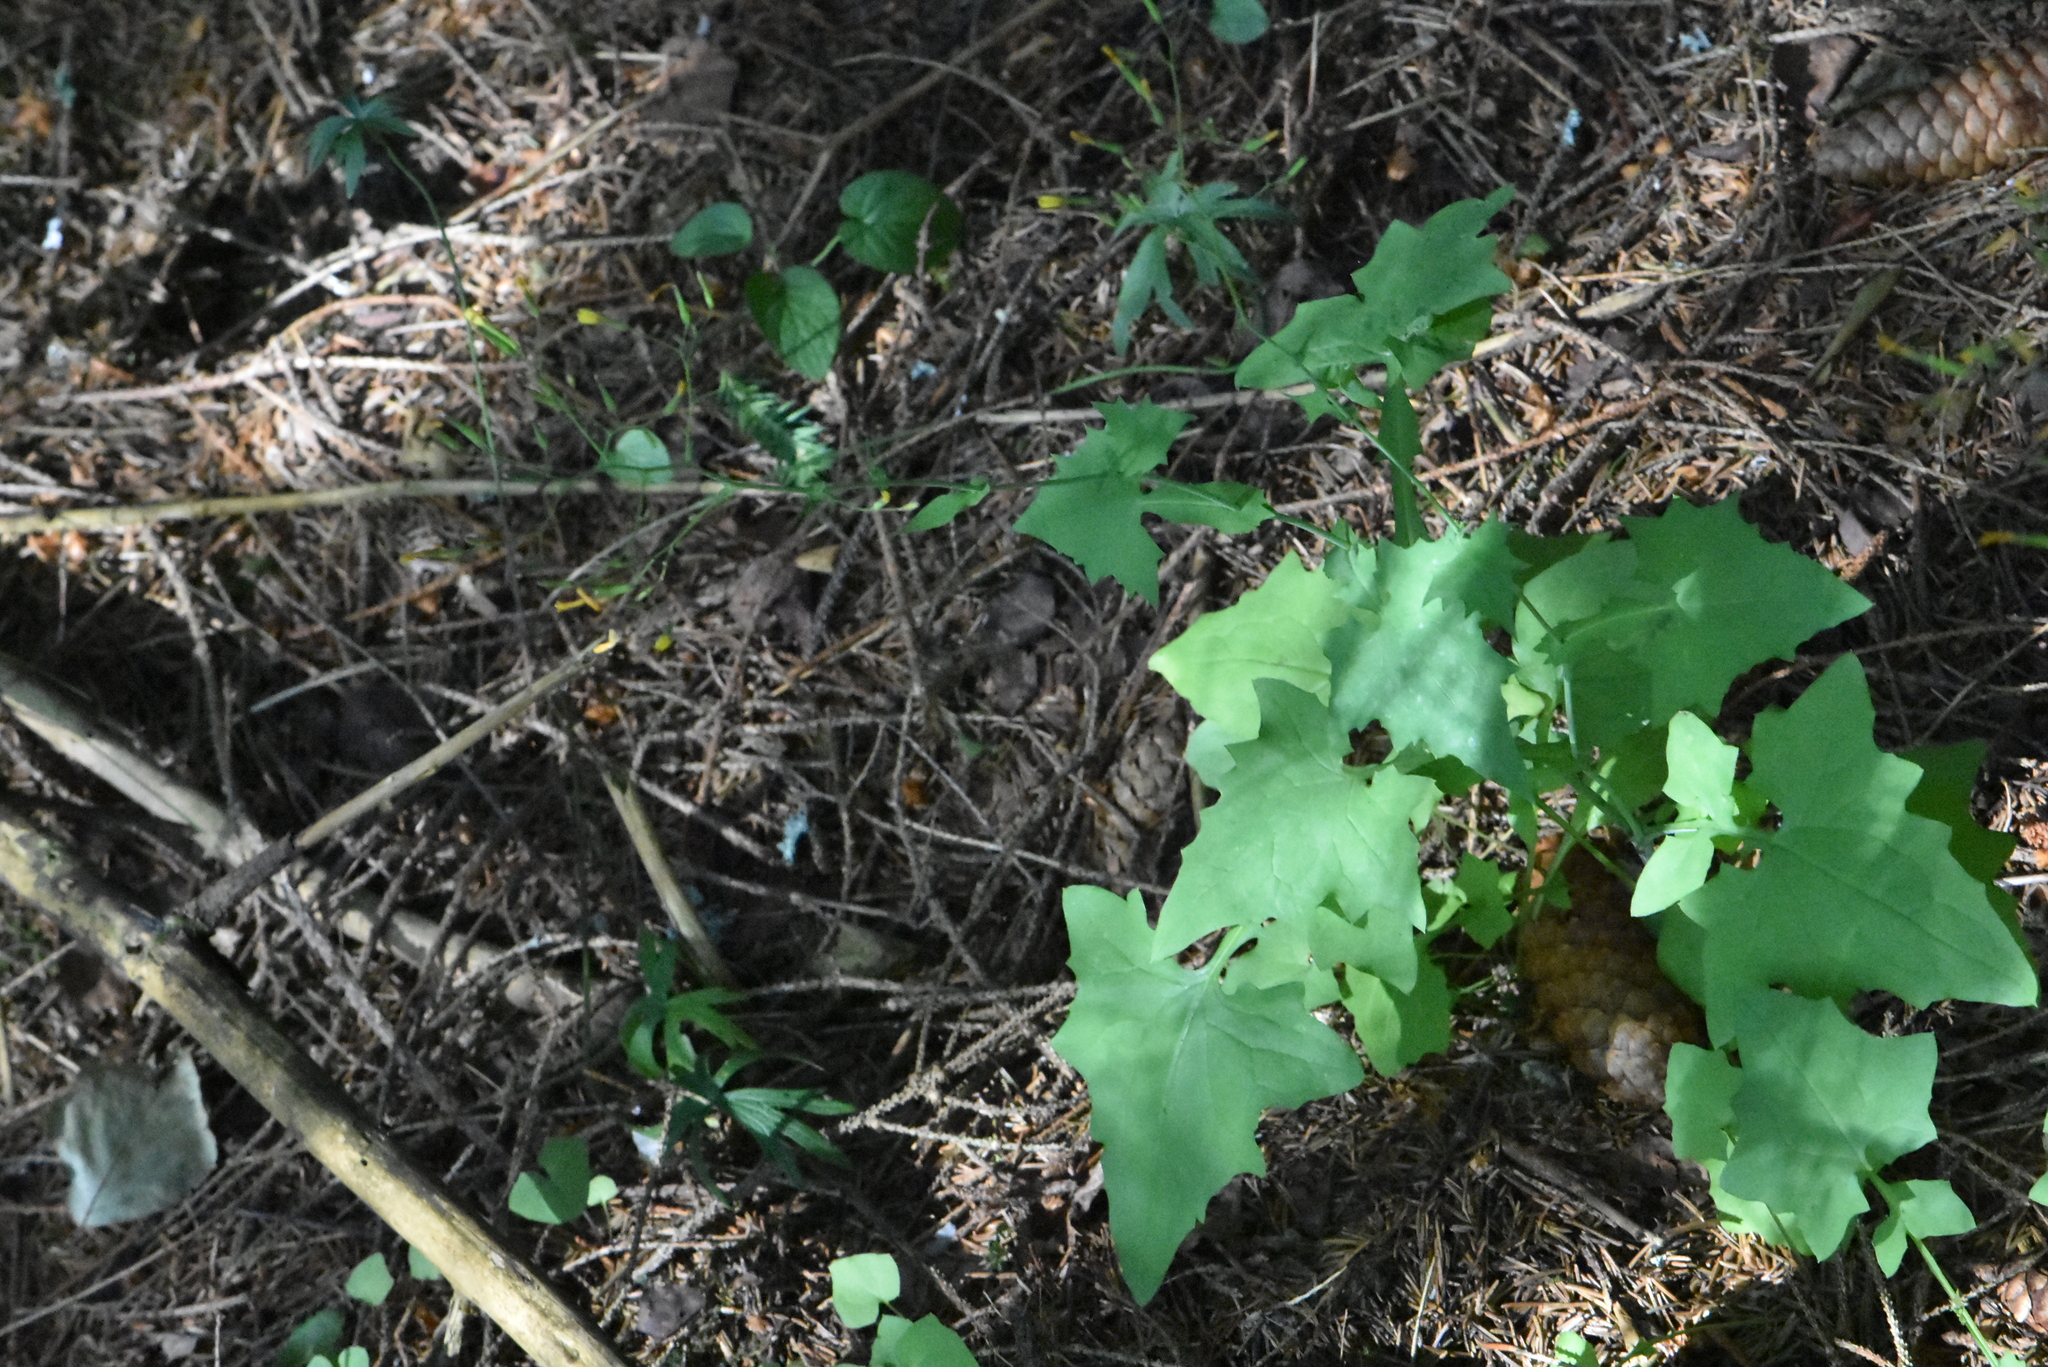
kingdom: Plantae
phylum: Tracheophyta
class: Magnoliopsida
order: Asterales
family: Asteraceae
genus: Mycelis
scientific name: Mycelis muralis
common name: Wall lettuce
